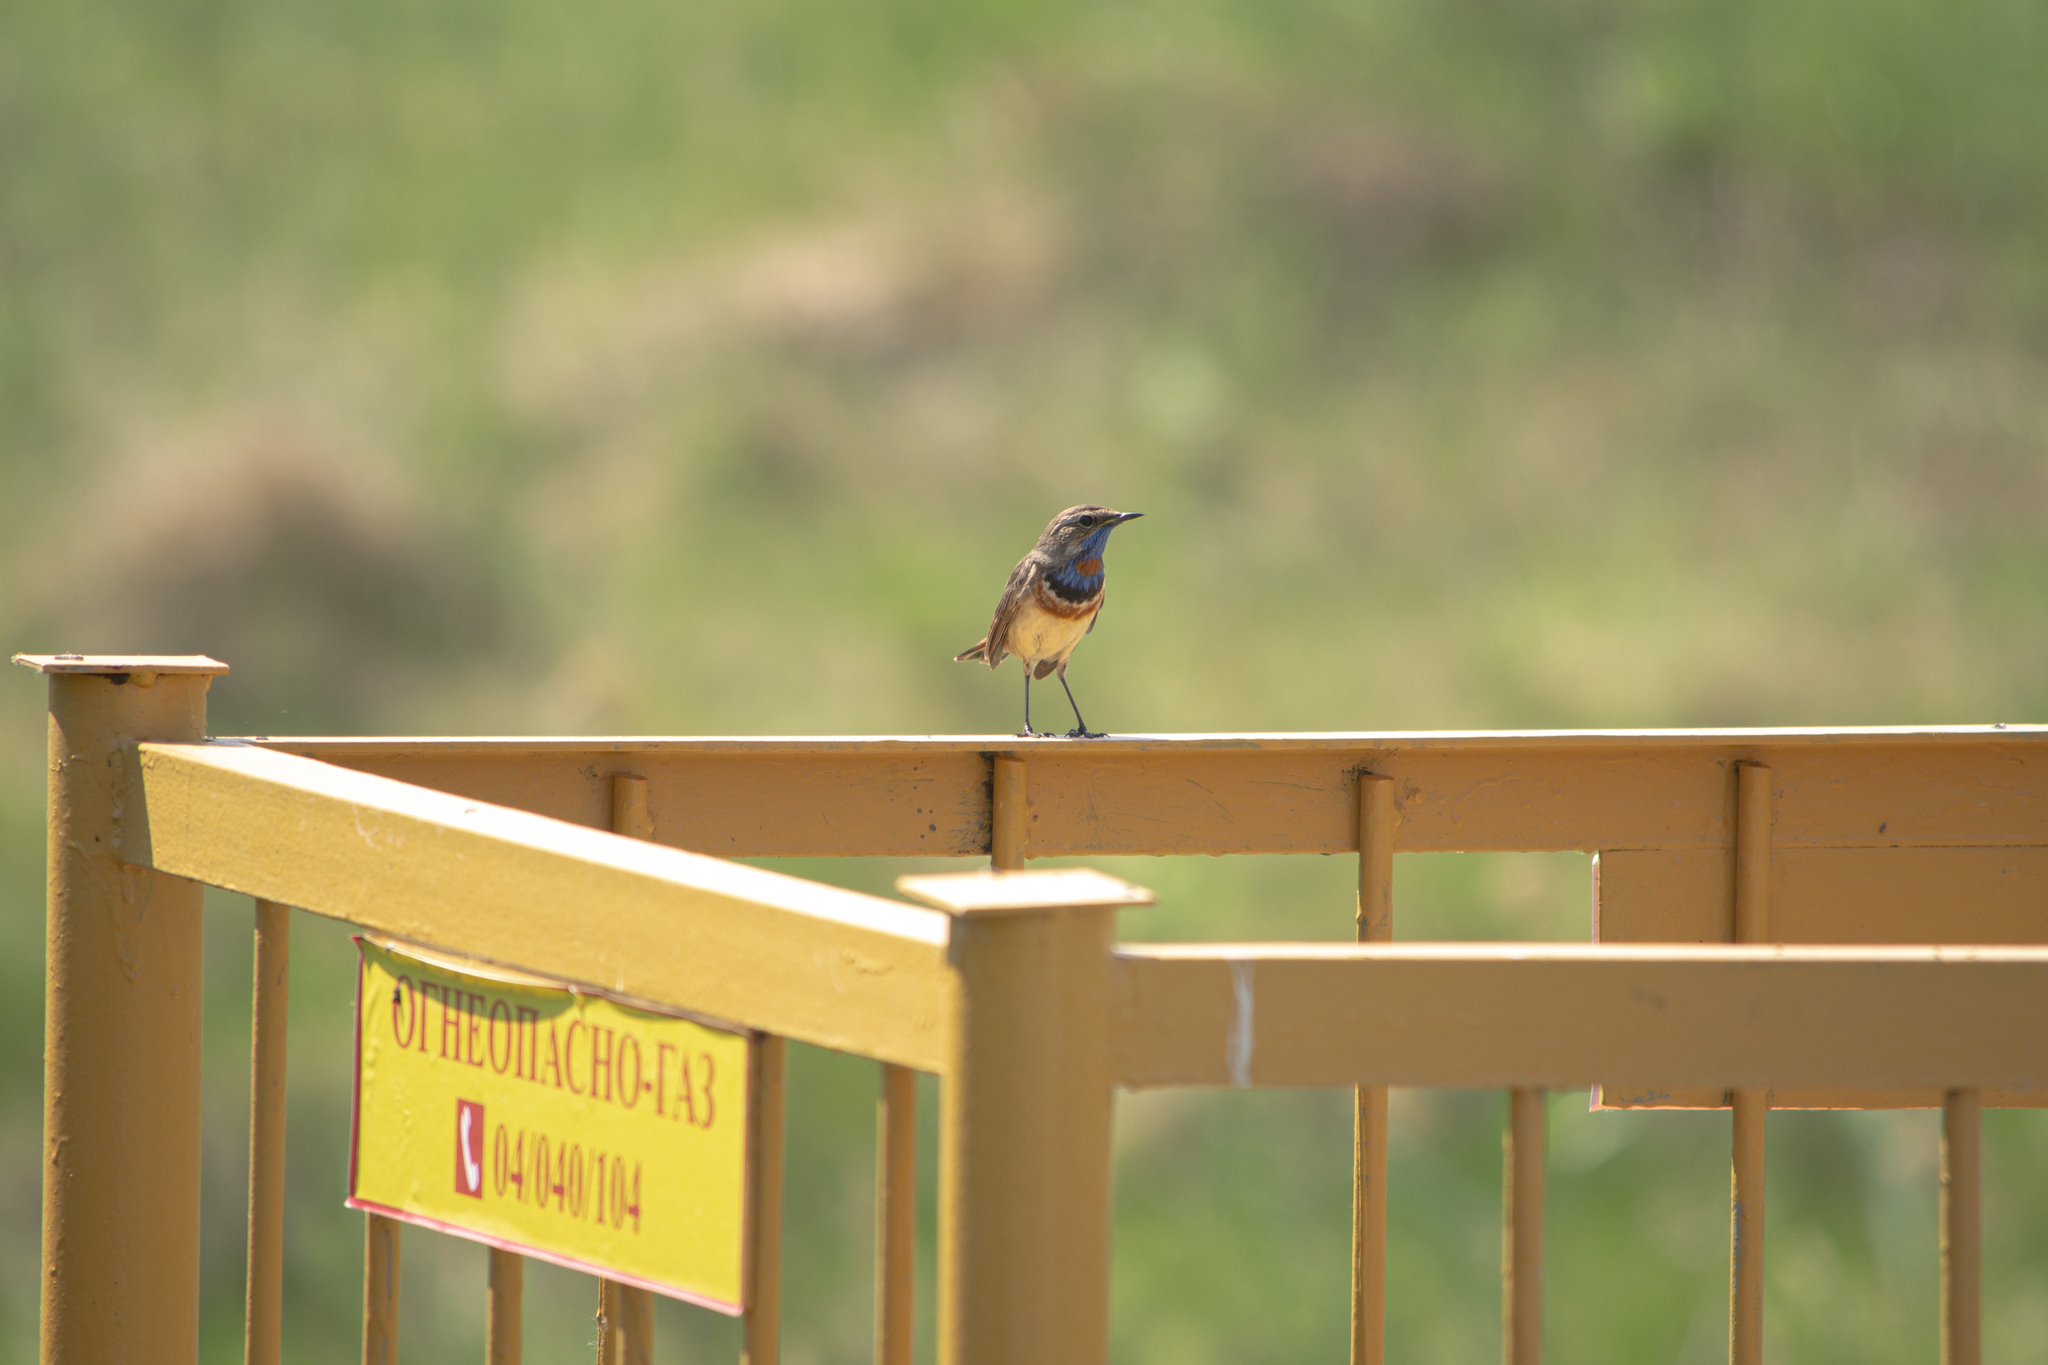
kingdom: Animalia
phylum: Chordata
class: Aves
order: Passeriformes
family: Muscicapidae
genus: Luscinia
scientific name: Luscinia svecica
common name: Bluethroat
